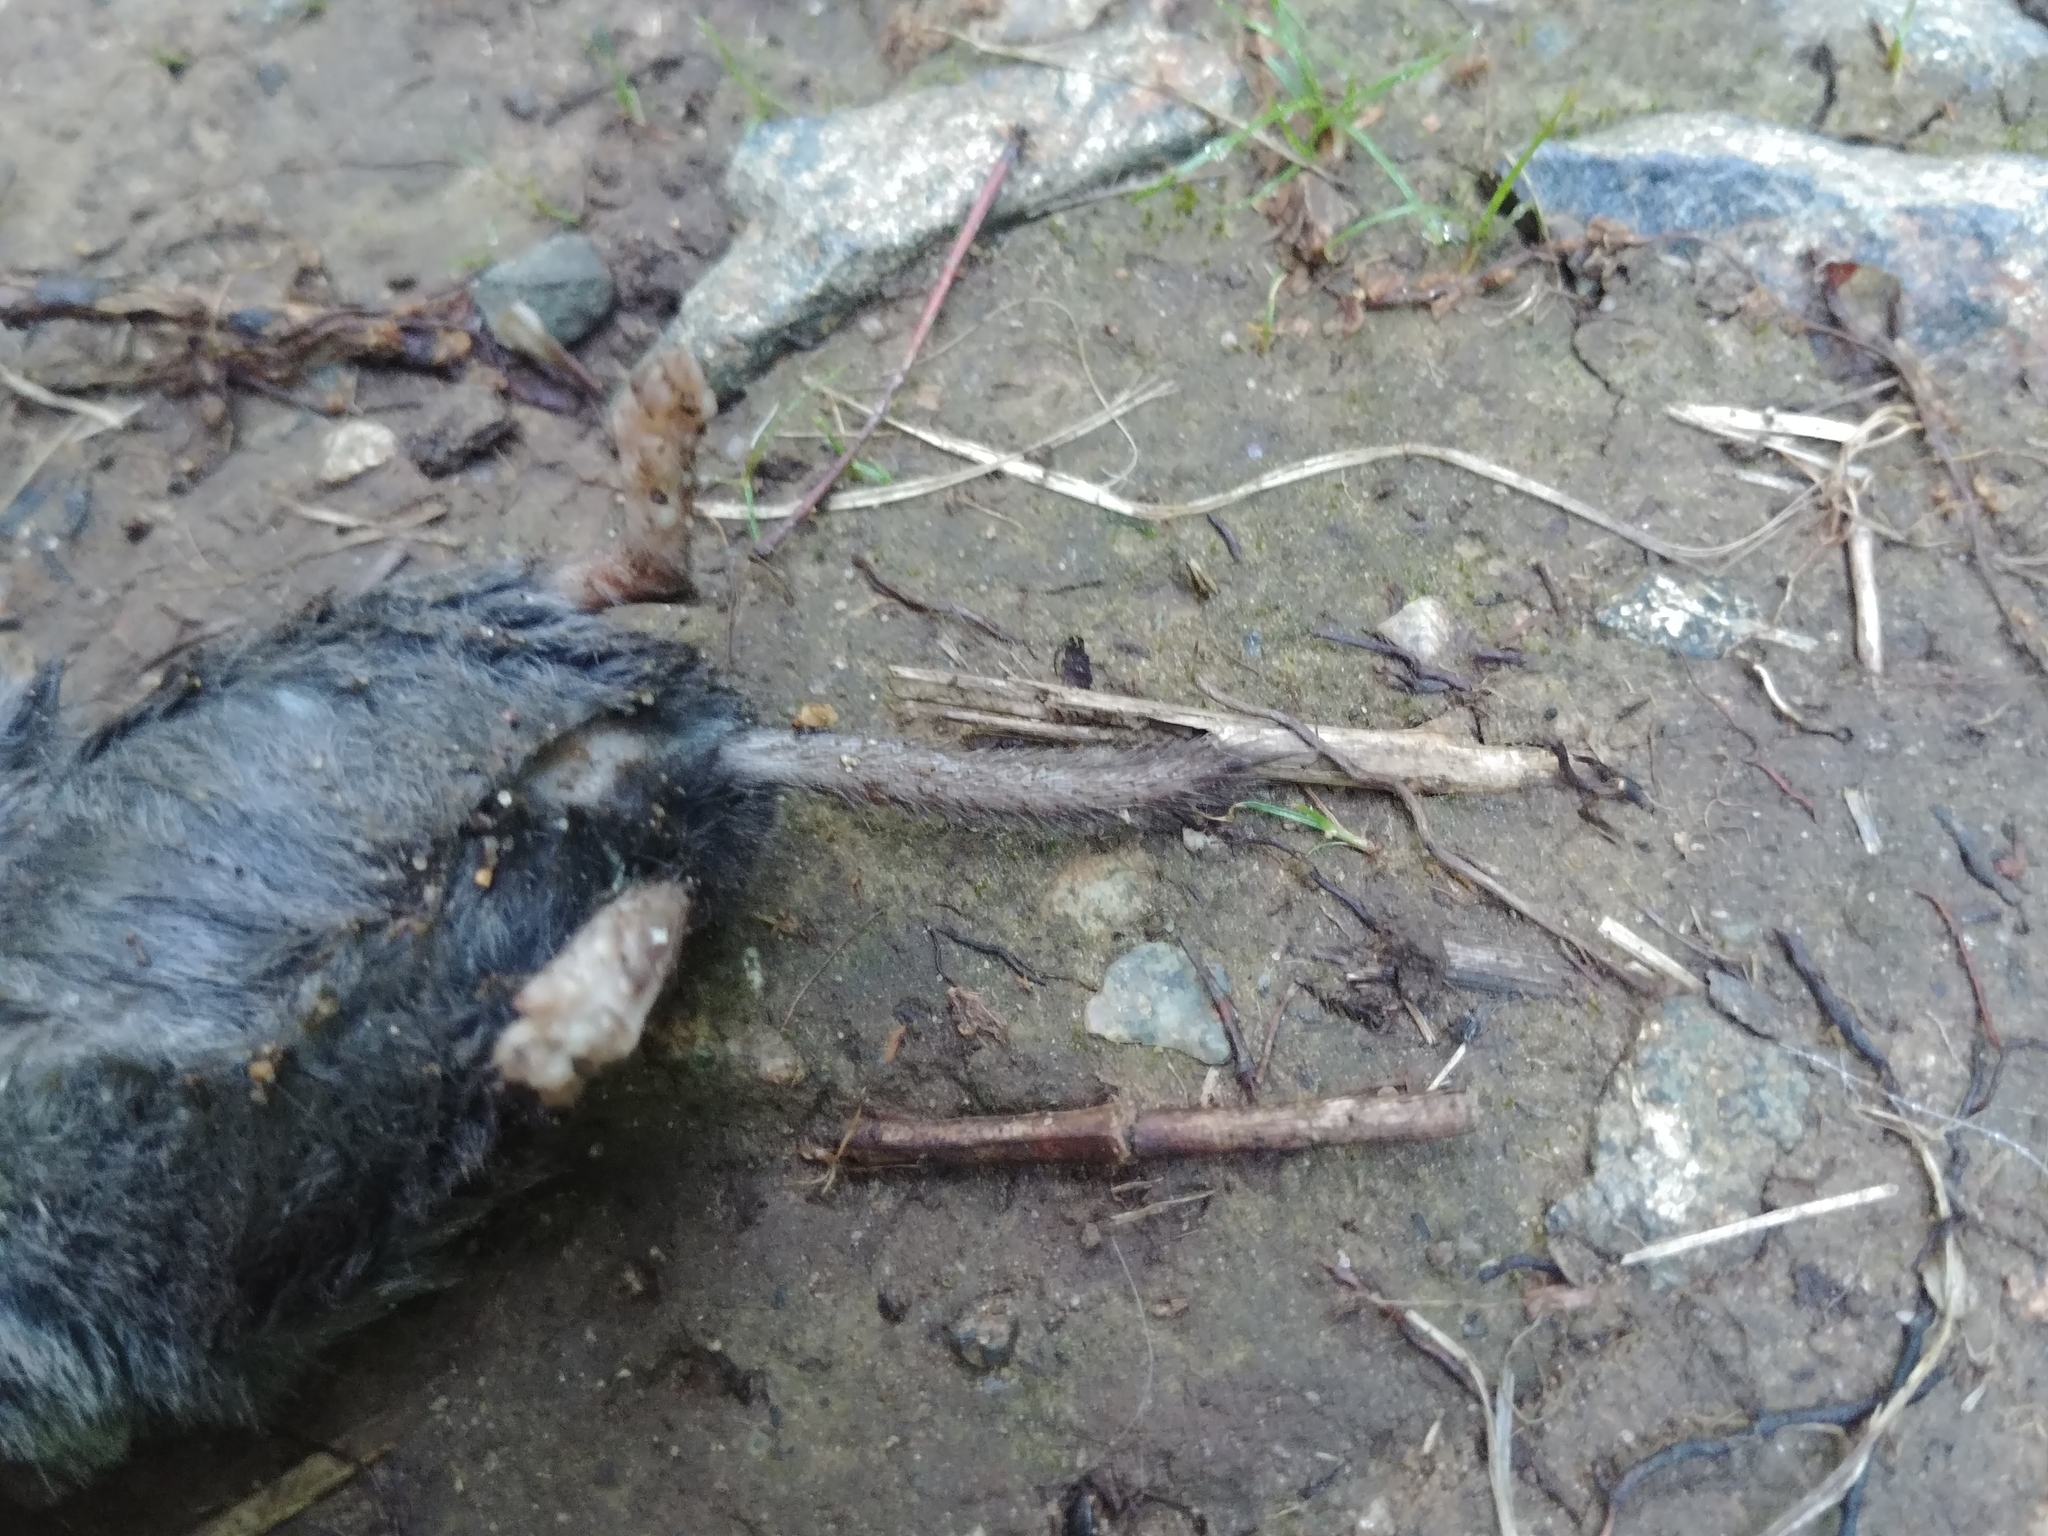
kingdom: Animalia
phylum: Chordata
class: Mammalia
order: Soricomorpha
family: Soricidae
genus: Blarina
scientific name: Blarina brevicauda
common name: Northern short-tailed shrew
